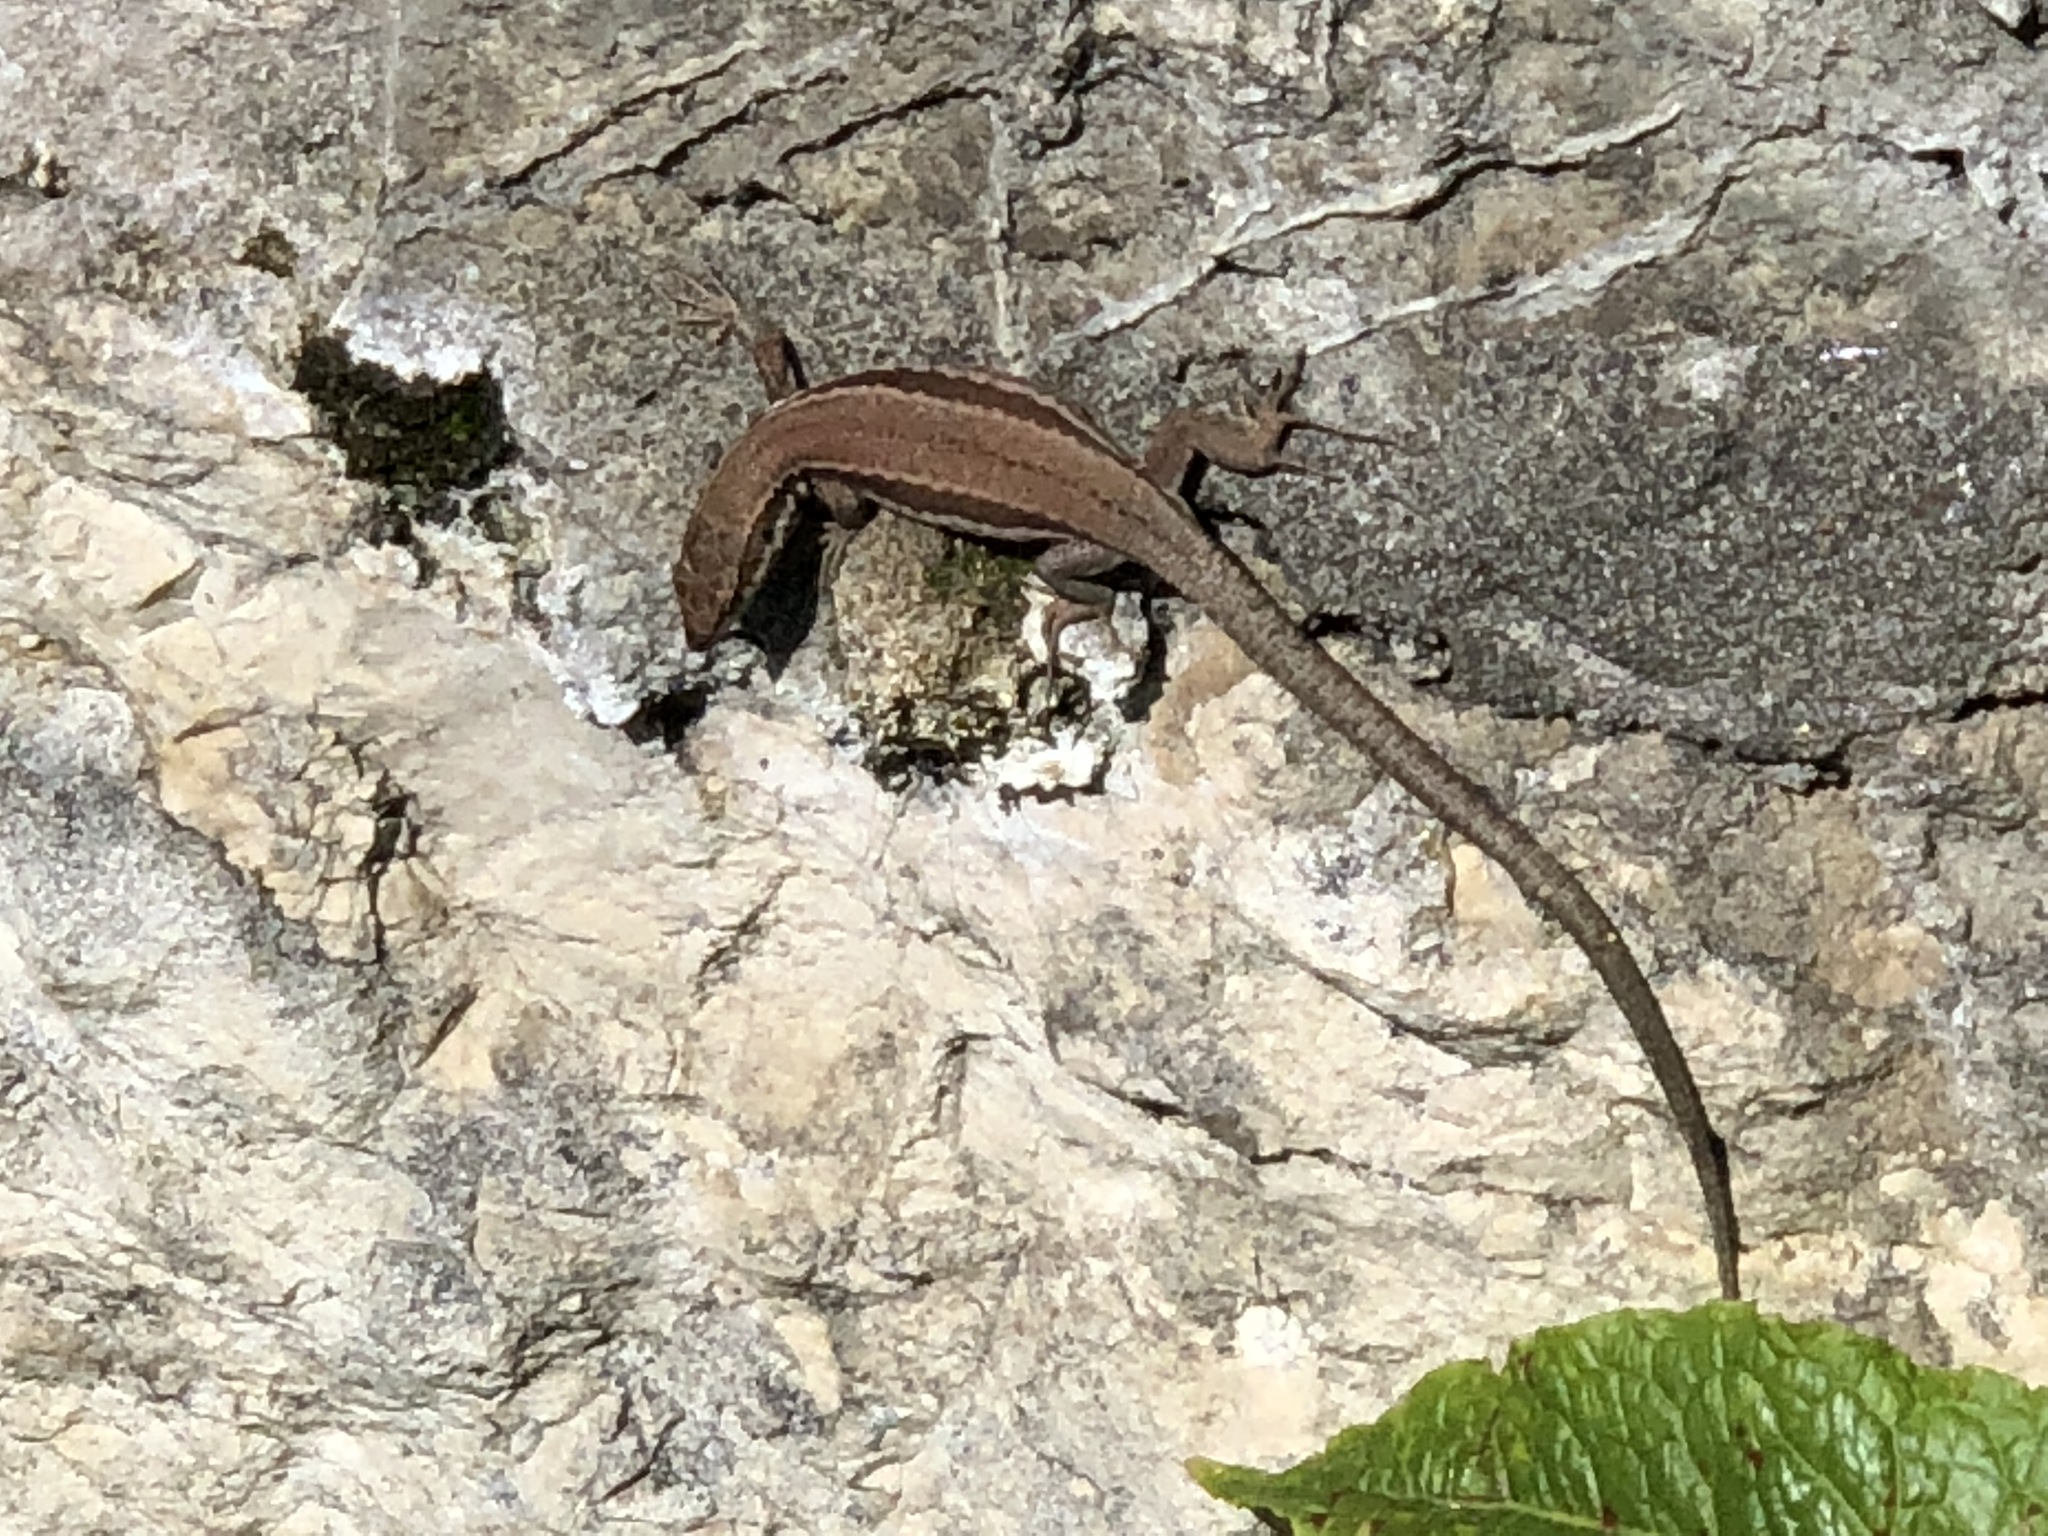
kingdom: Animalia
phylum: Chordata
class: Squamata
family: Lacertidae
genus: Podarcis
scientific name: Podarcis muralis
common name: Common wall lizard
